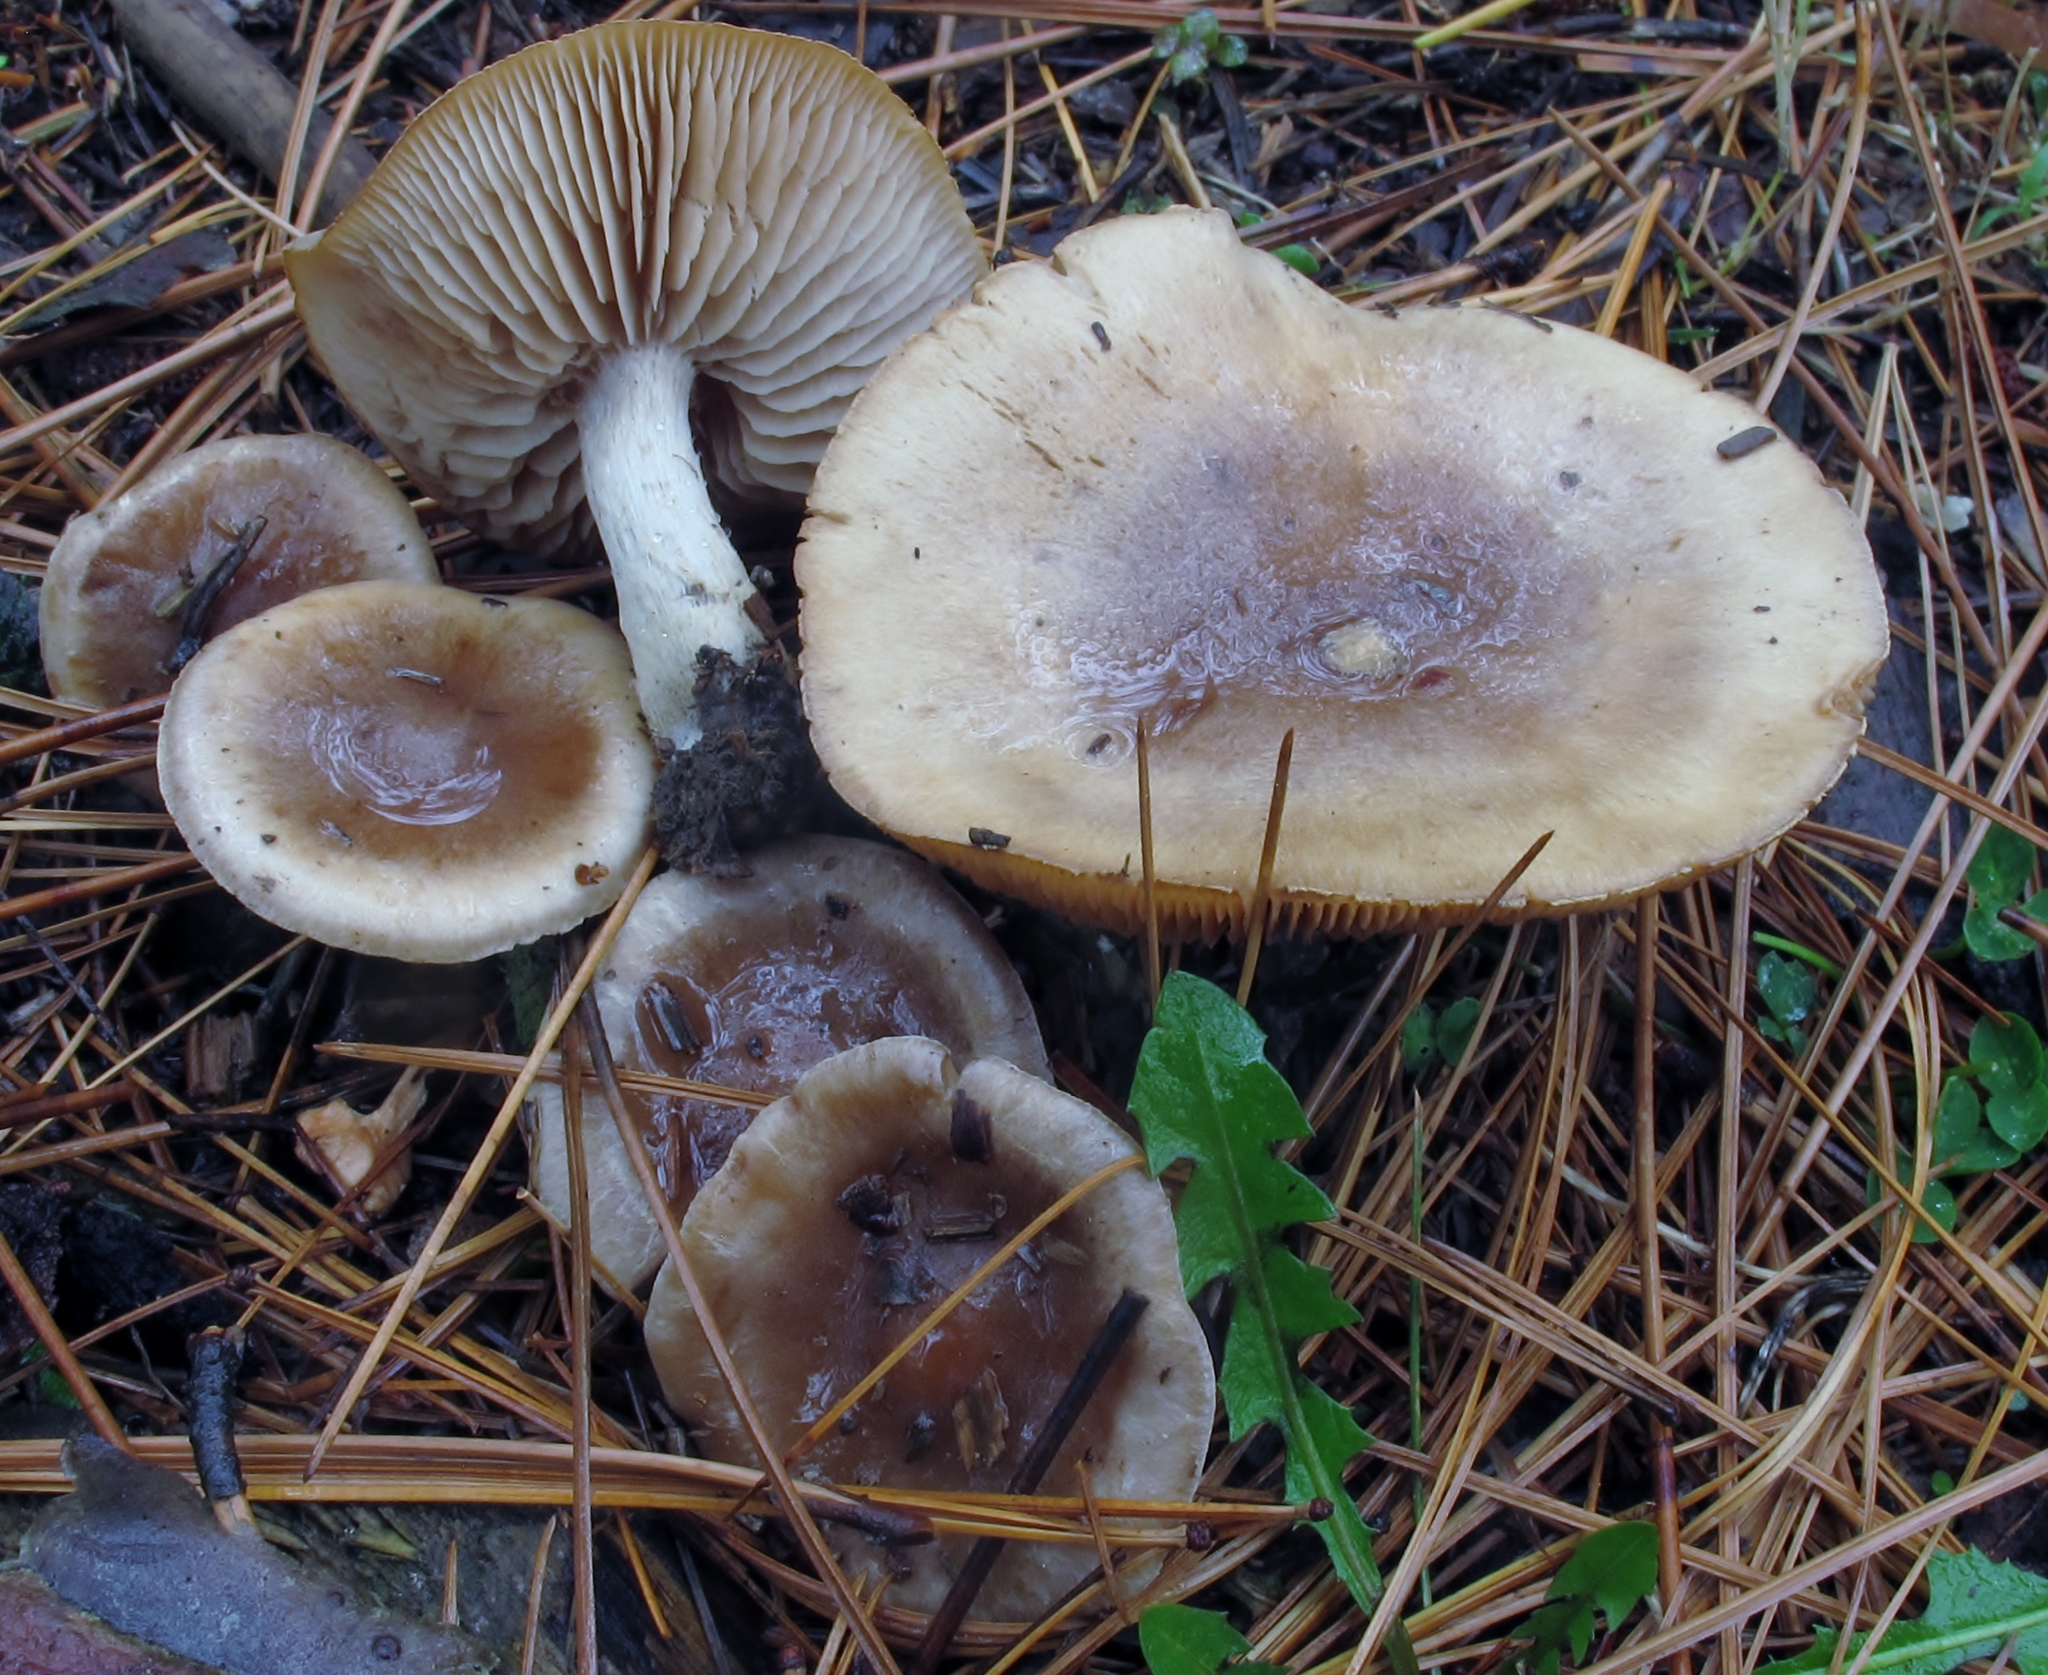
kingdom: Fungi
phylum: Basidiomycota
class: Agaricomycetes
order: Agaricales
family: Hymenogastraceae
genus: Hebeloma
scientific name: Hebeloma mesophaeum
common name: Veiled poisonpie
